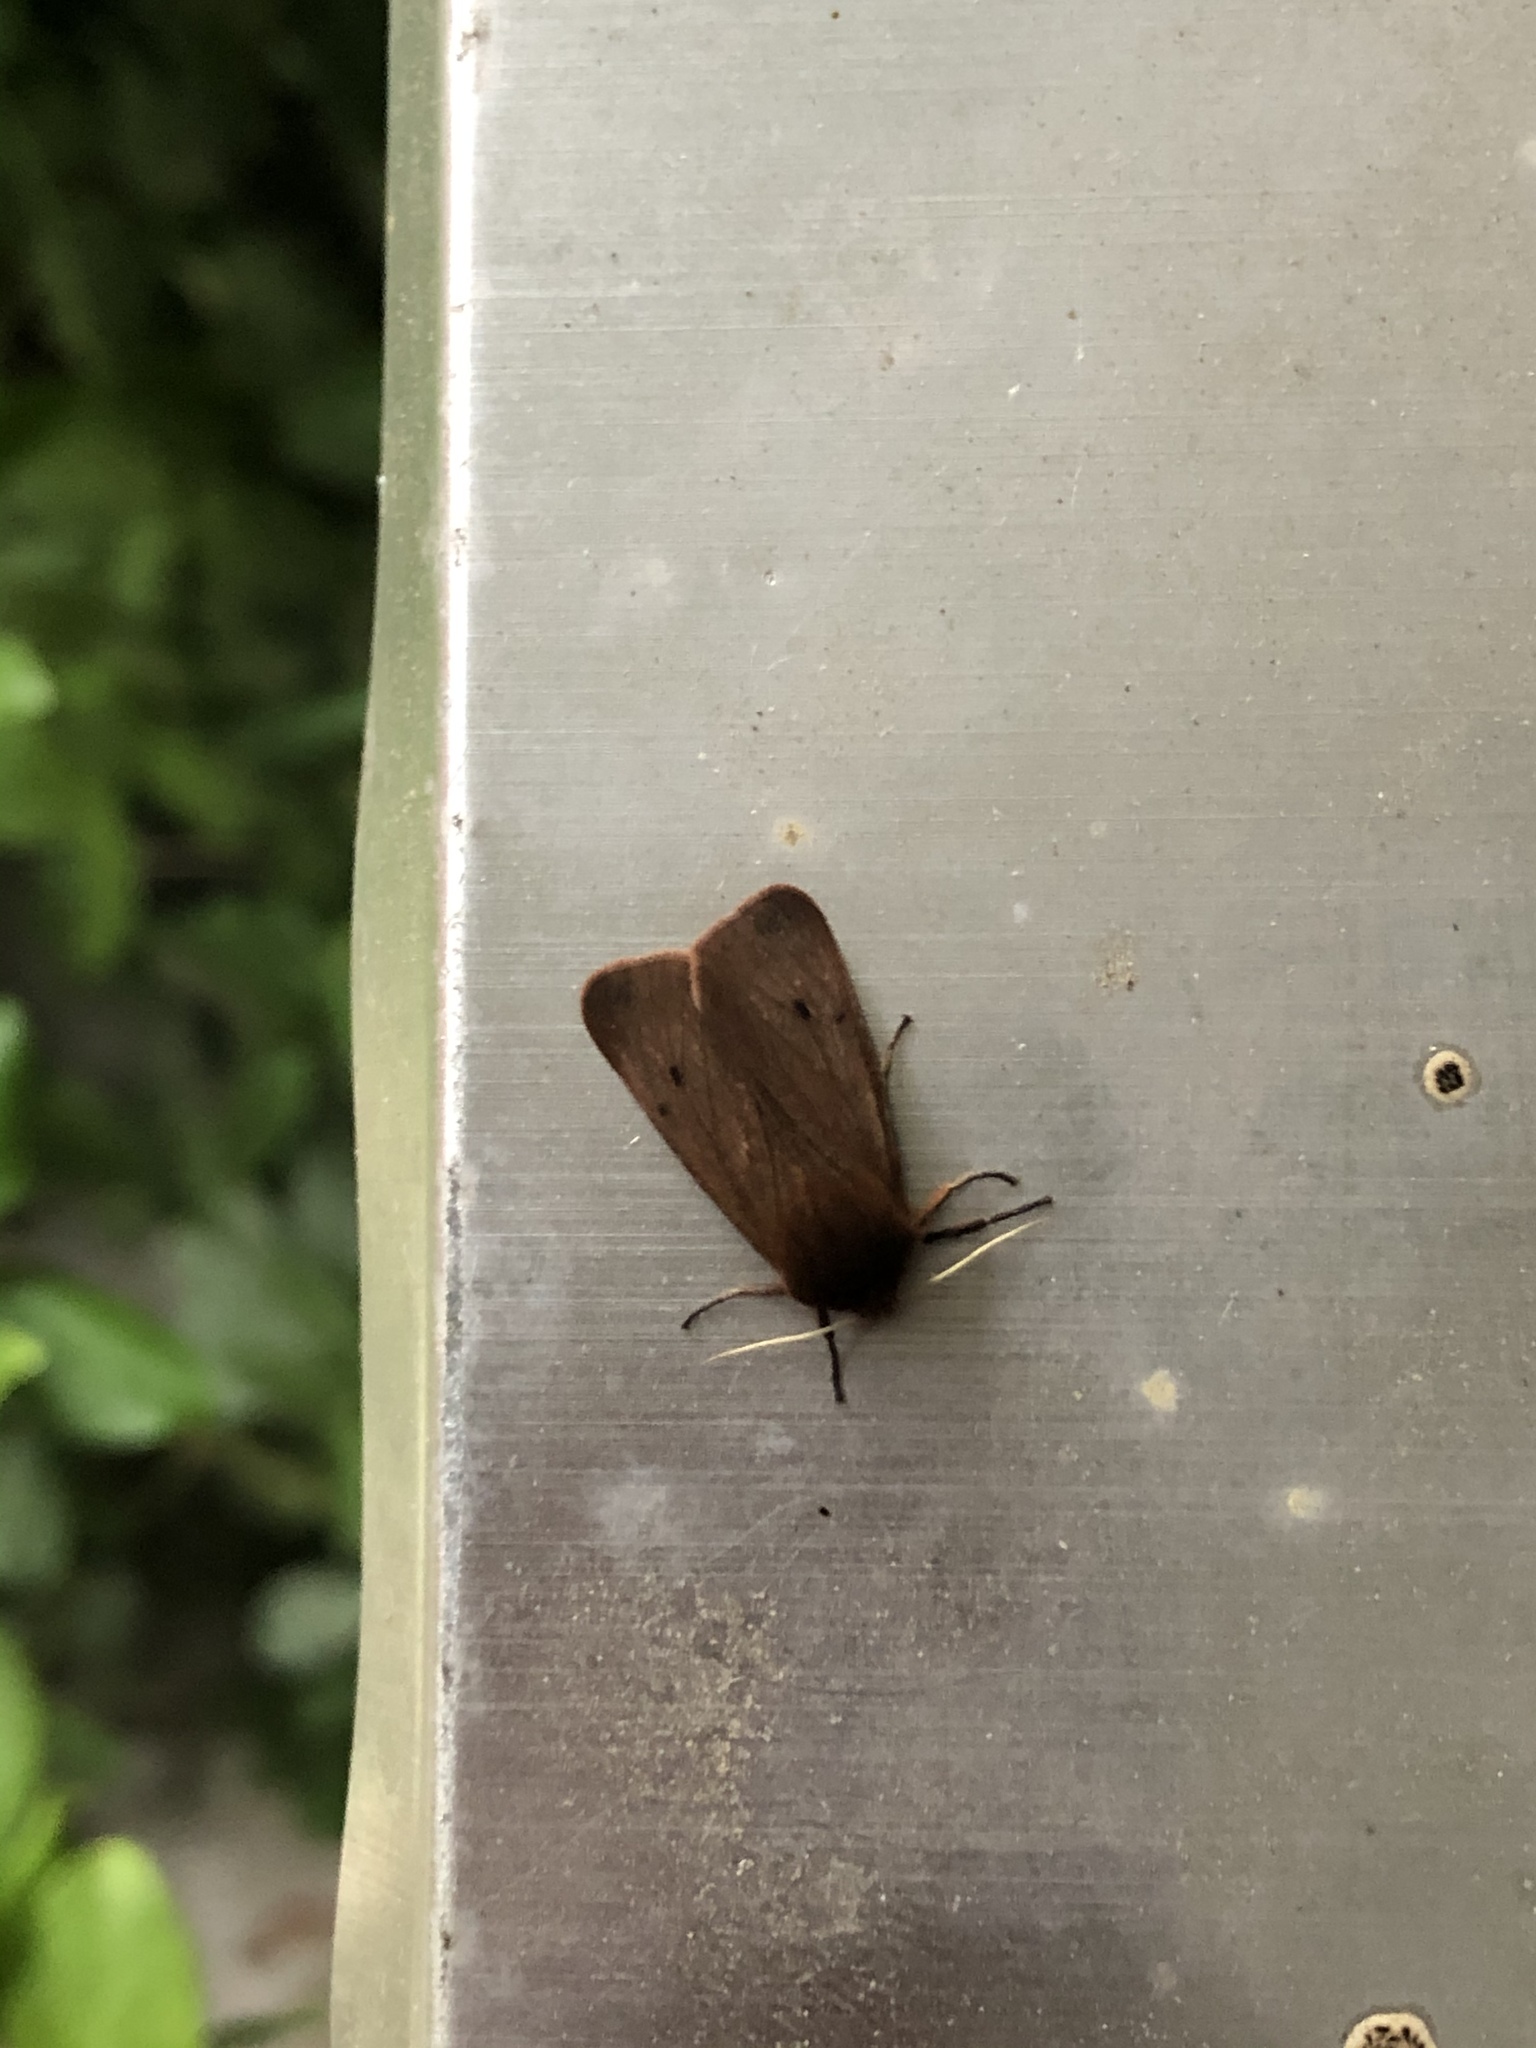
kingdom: Animalia
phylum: Arthropoda
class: Insecta
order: Lepidoptera
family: Erebidae
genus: Phragmatobia
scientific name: Phragmatobia fuliginosa
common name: Ruby tiger
